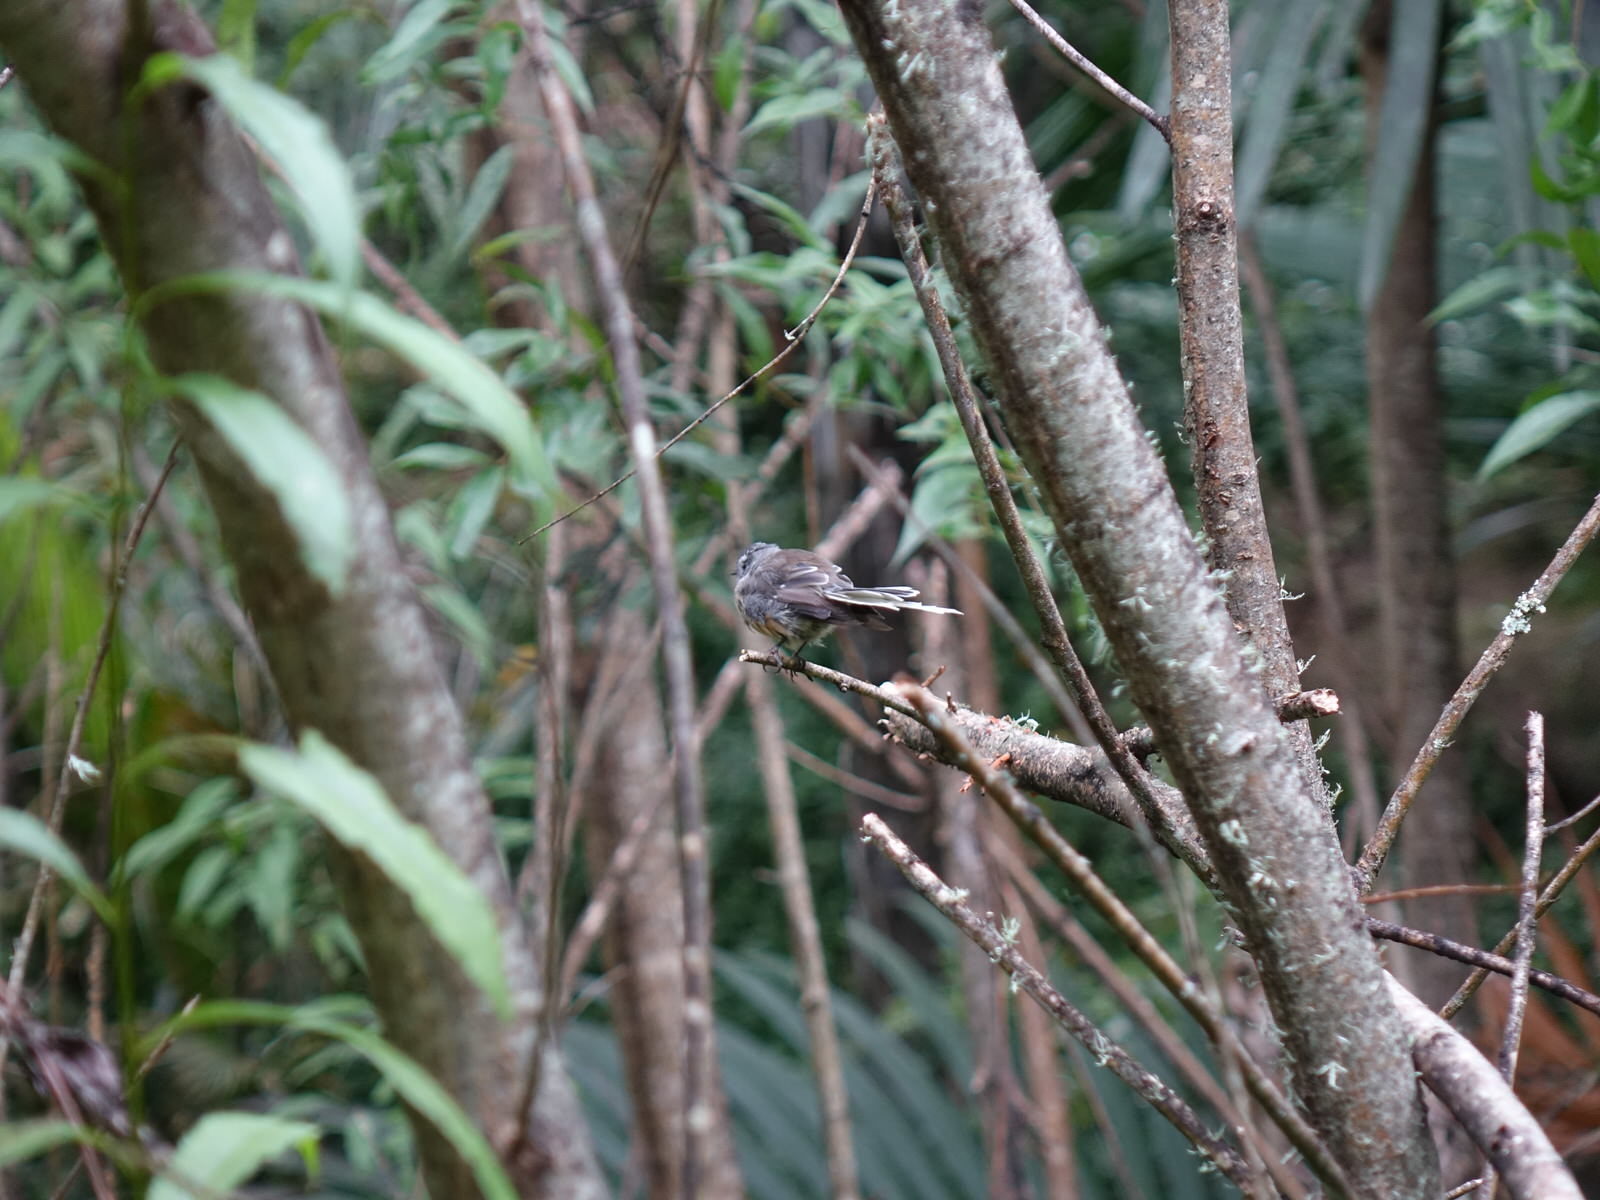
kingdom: Animalia
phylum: Chordata
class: Aves
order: Passeriformes
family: Rhipiduridae
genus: Rhipidura
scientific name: Rhipidura fuliginosa
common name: New zealand fantail
